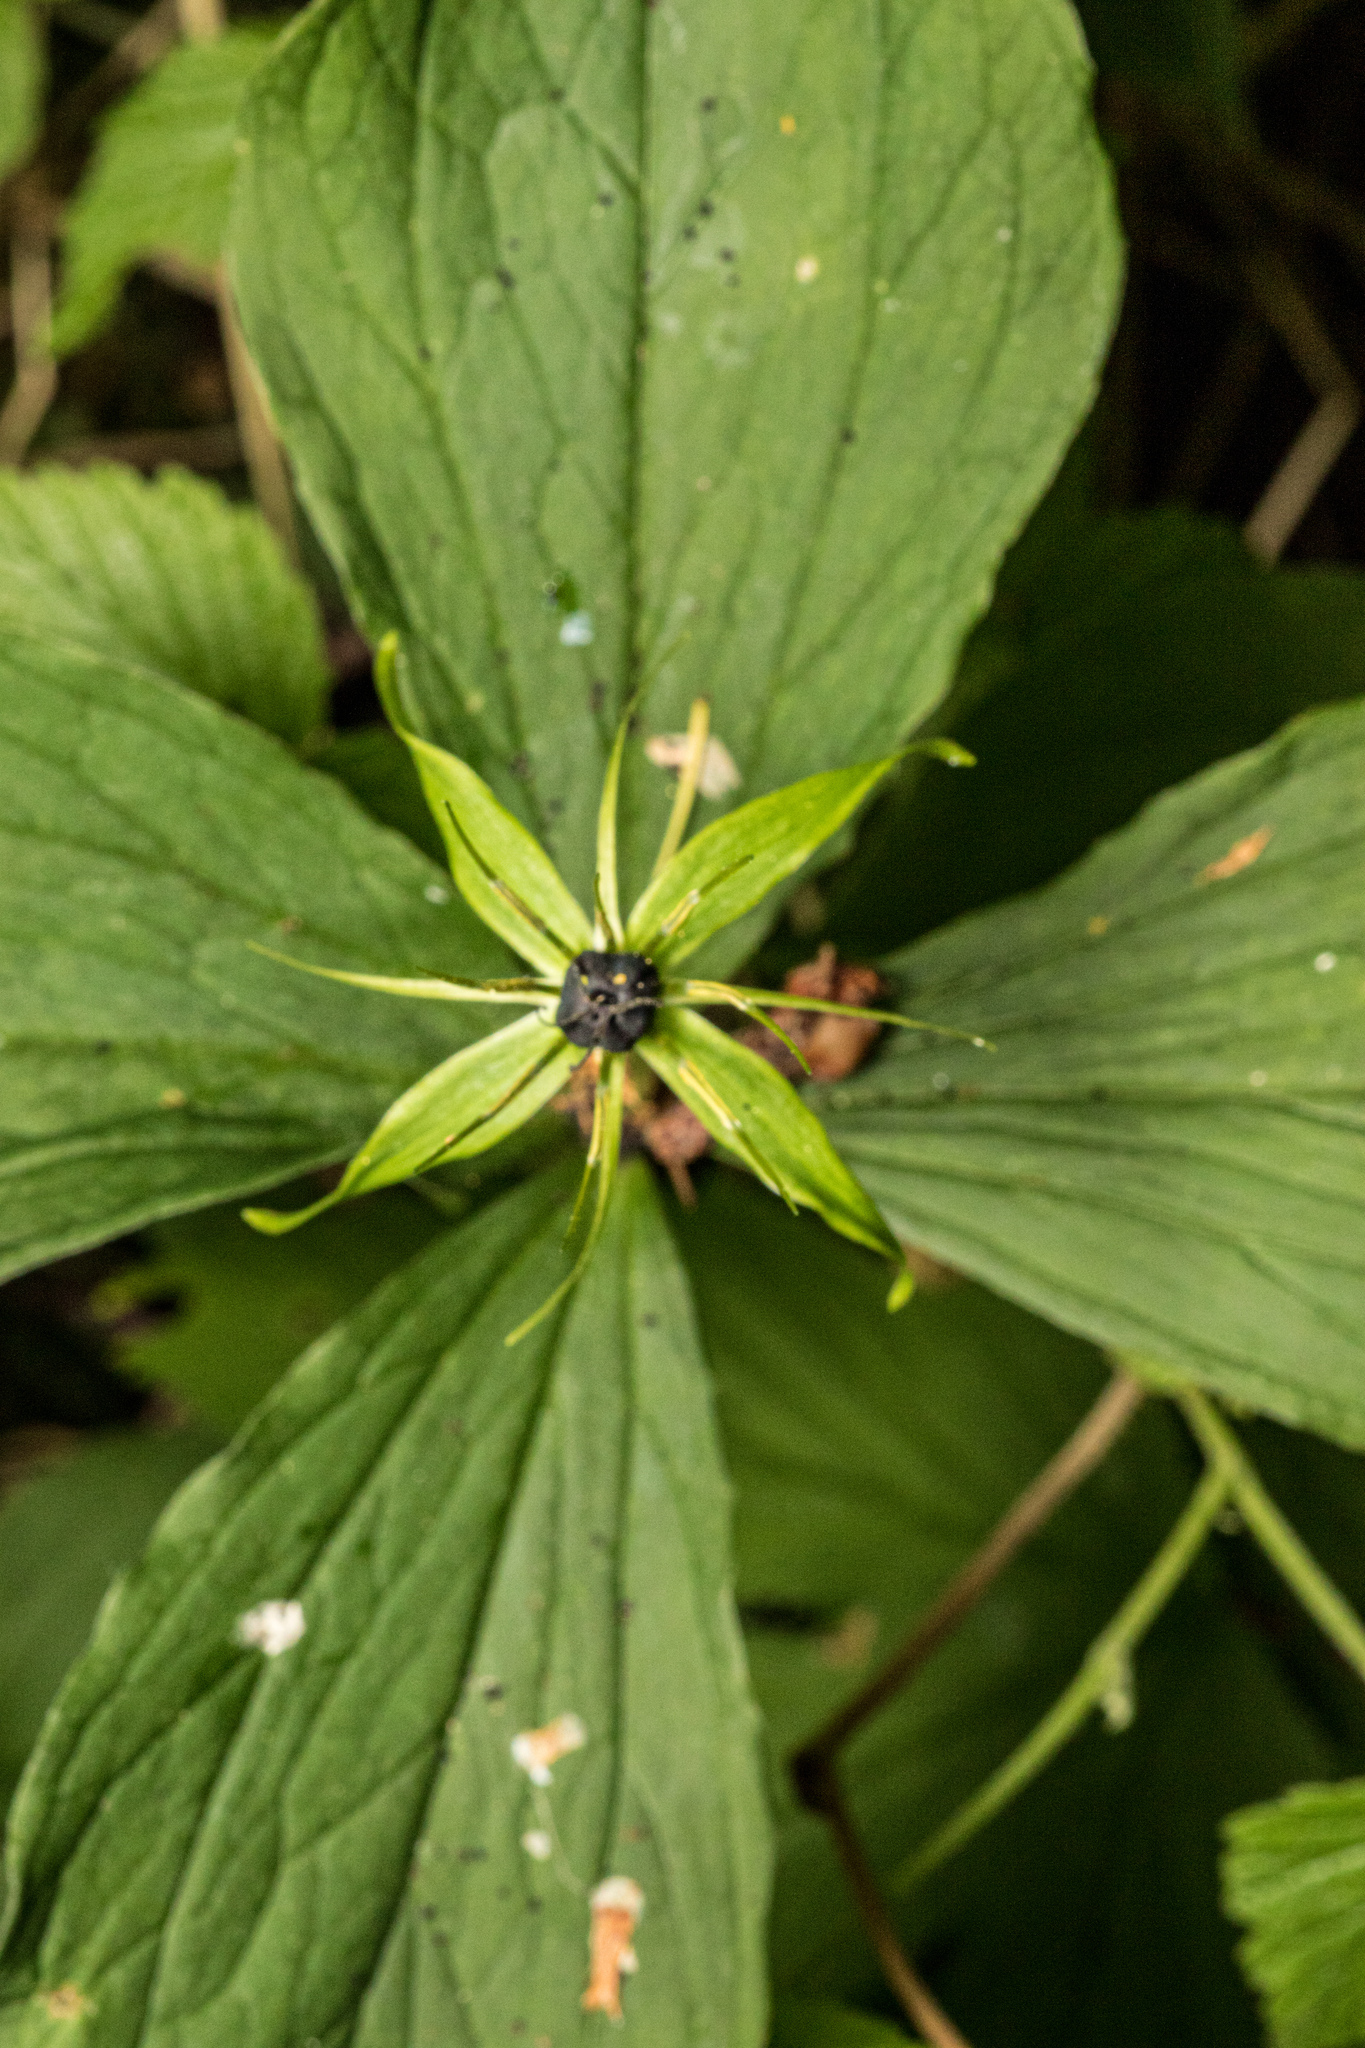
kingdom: Plantae
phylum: Tracheophyta
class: Liliopsida
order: Liliales
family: Melanthiaceae
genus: Paris
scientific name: Paris quadrifolia
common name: Herb-paris
